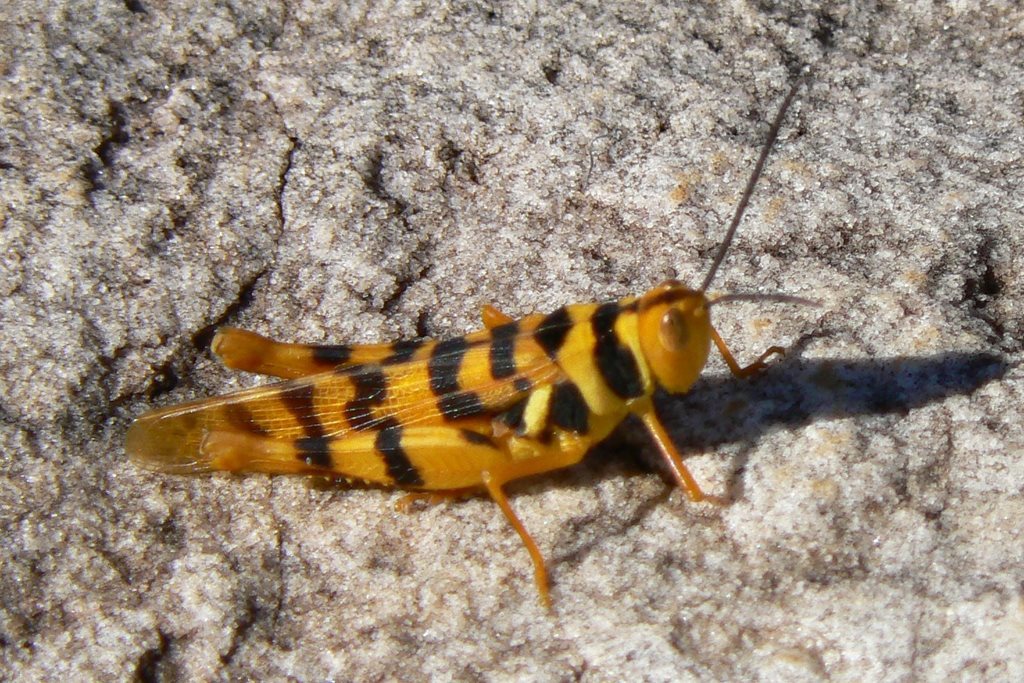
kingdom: Animalia
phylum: Arthropoda
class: Insecta
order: Orthoptera
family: Acrididae
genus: Stropis
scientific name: Stropis maculosa
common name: Leopard grasshopper
